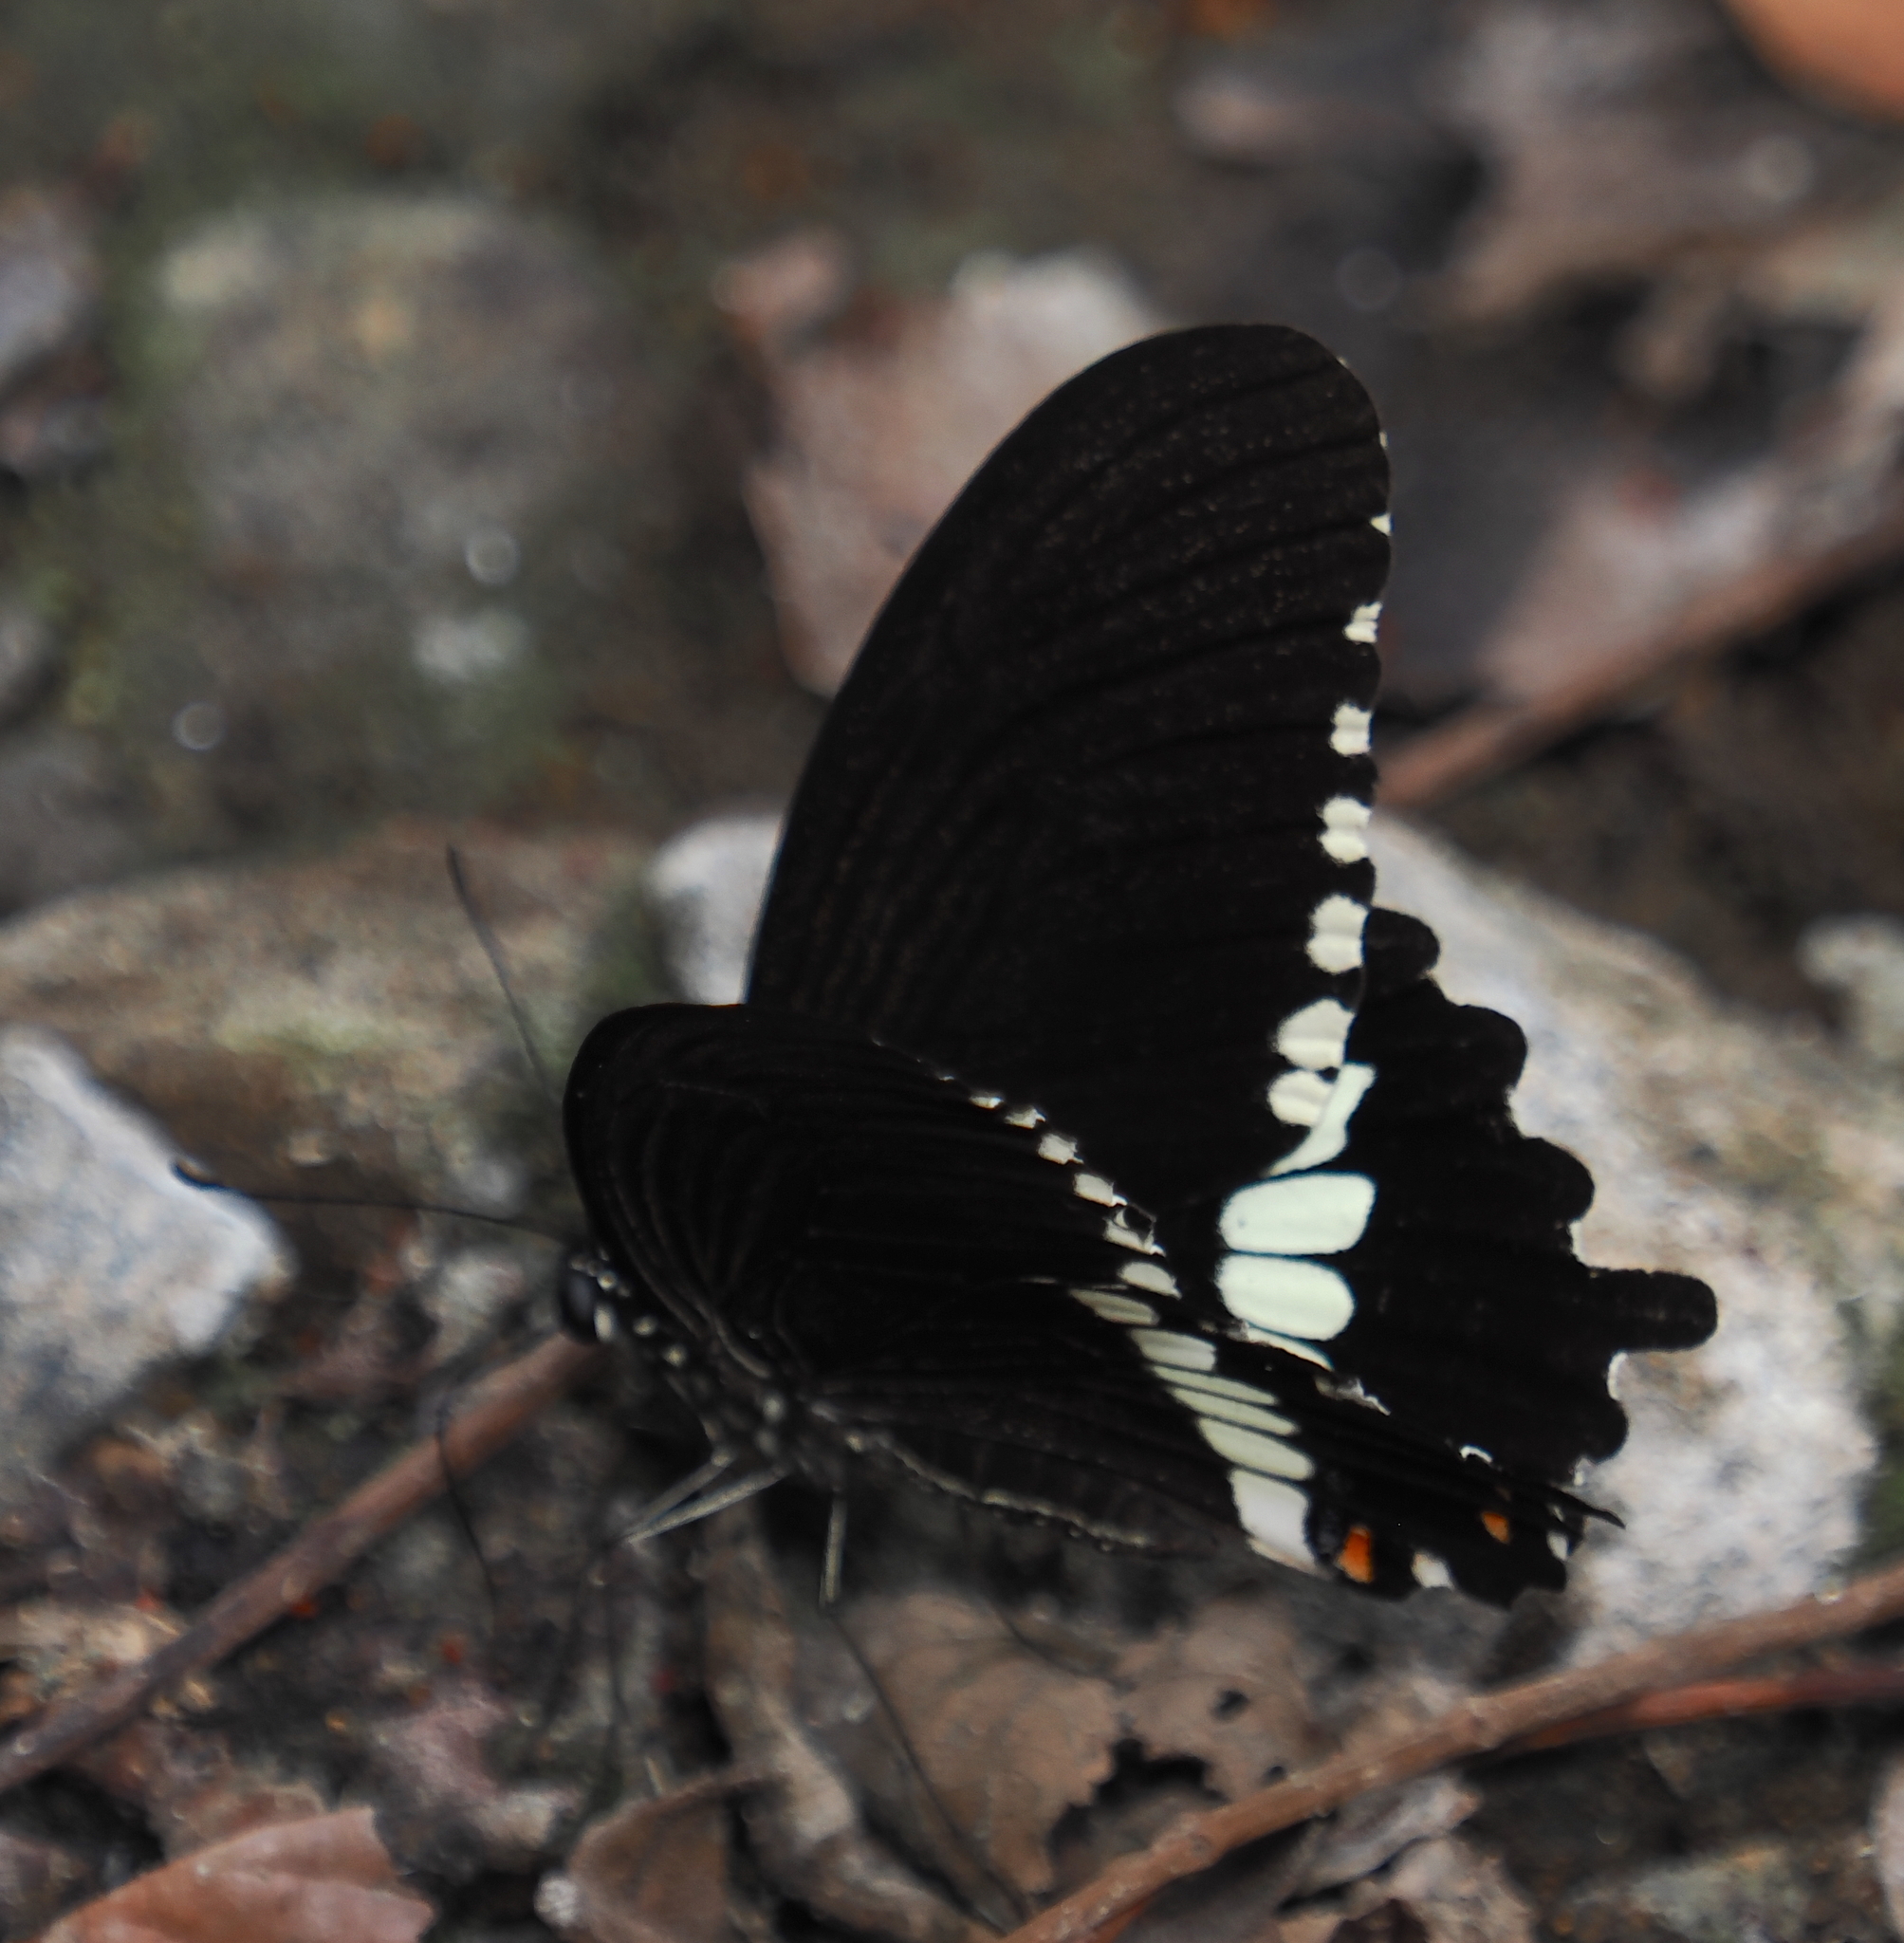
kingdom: Animalia
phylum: Arthropoda
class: Insecta
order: Lepidoptera
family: Papilionidae
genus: Papilio
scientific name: Papilio janaka
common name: Himalayan tailed redbreast
